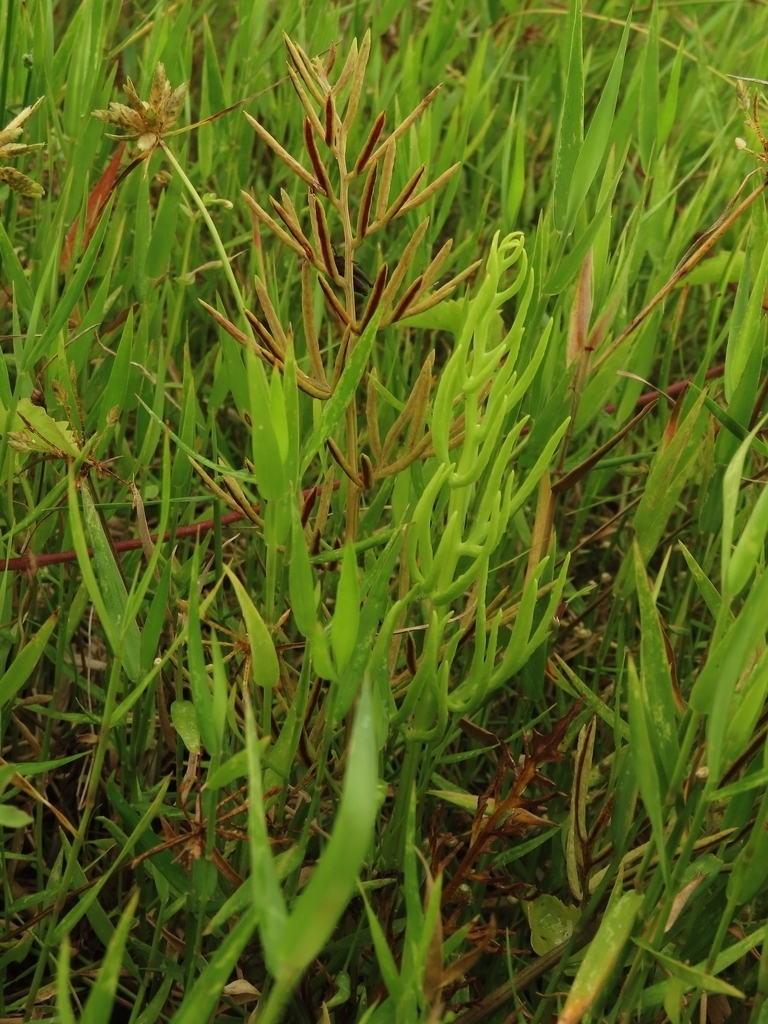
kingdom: Plantae
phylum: Tracheophyta
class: Polypodiopsida
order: Polypodiales
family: Pteridaceae
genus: Ceratopteris
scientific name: Ceratopteris thalictroides
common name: Water fern
